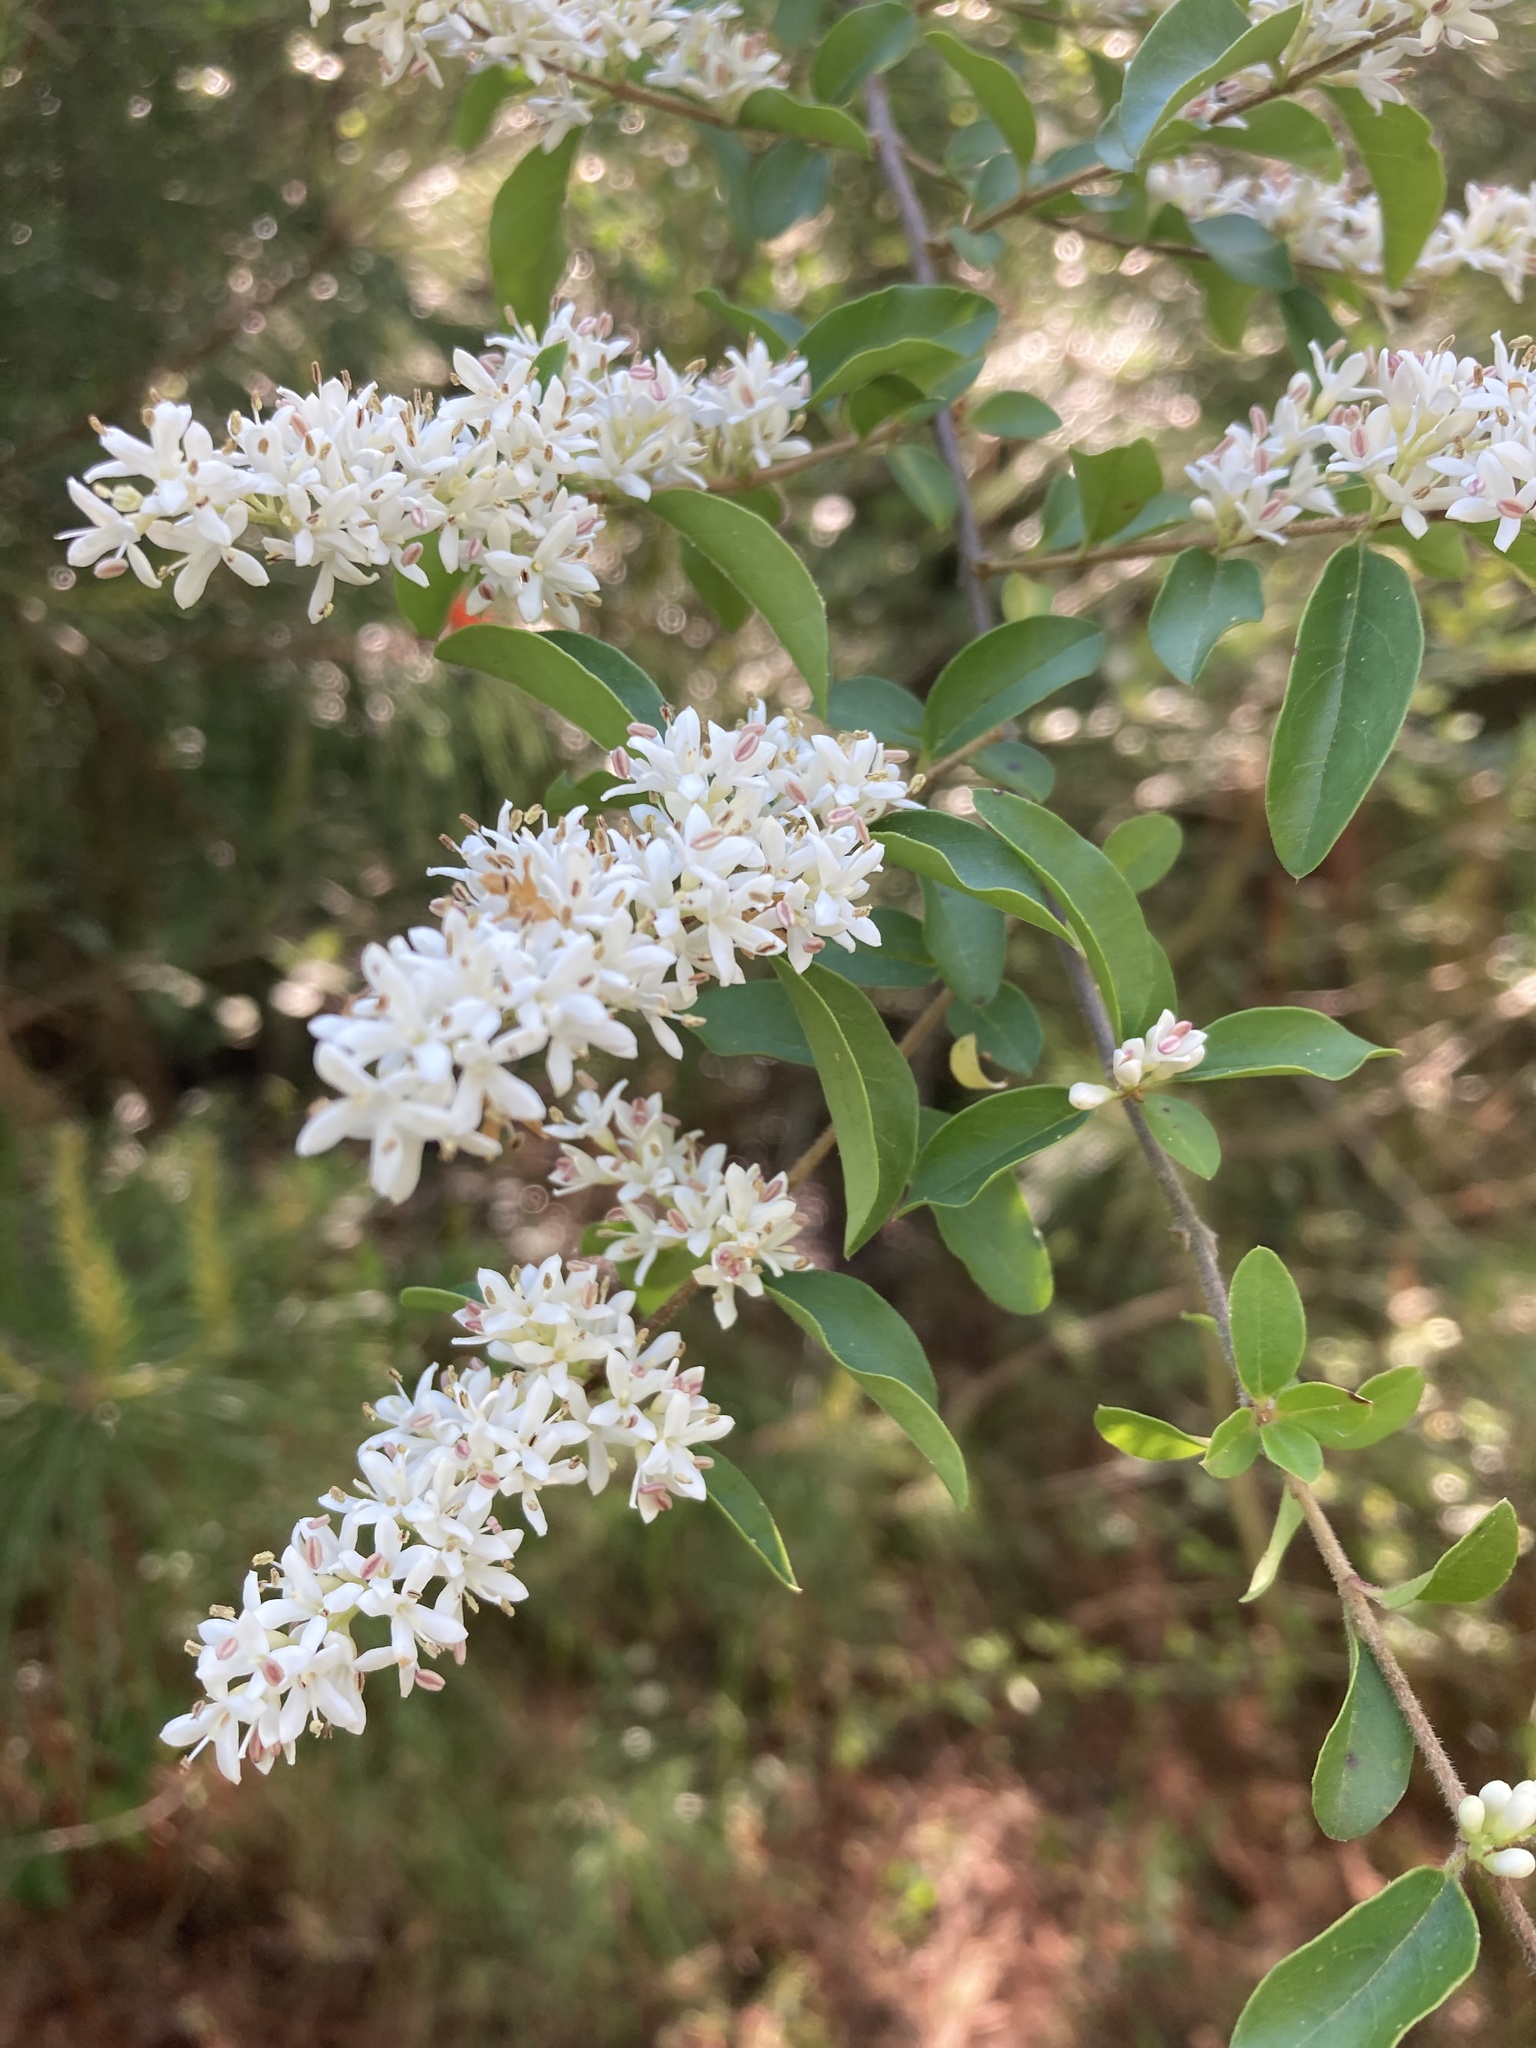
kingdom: Plantae
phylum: Tracheophyta
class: Magnoliopsida
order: Lamiales
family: Oleaceae
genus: Ligustrum
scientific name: Ligustrum sinense
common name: Chinese privet
